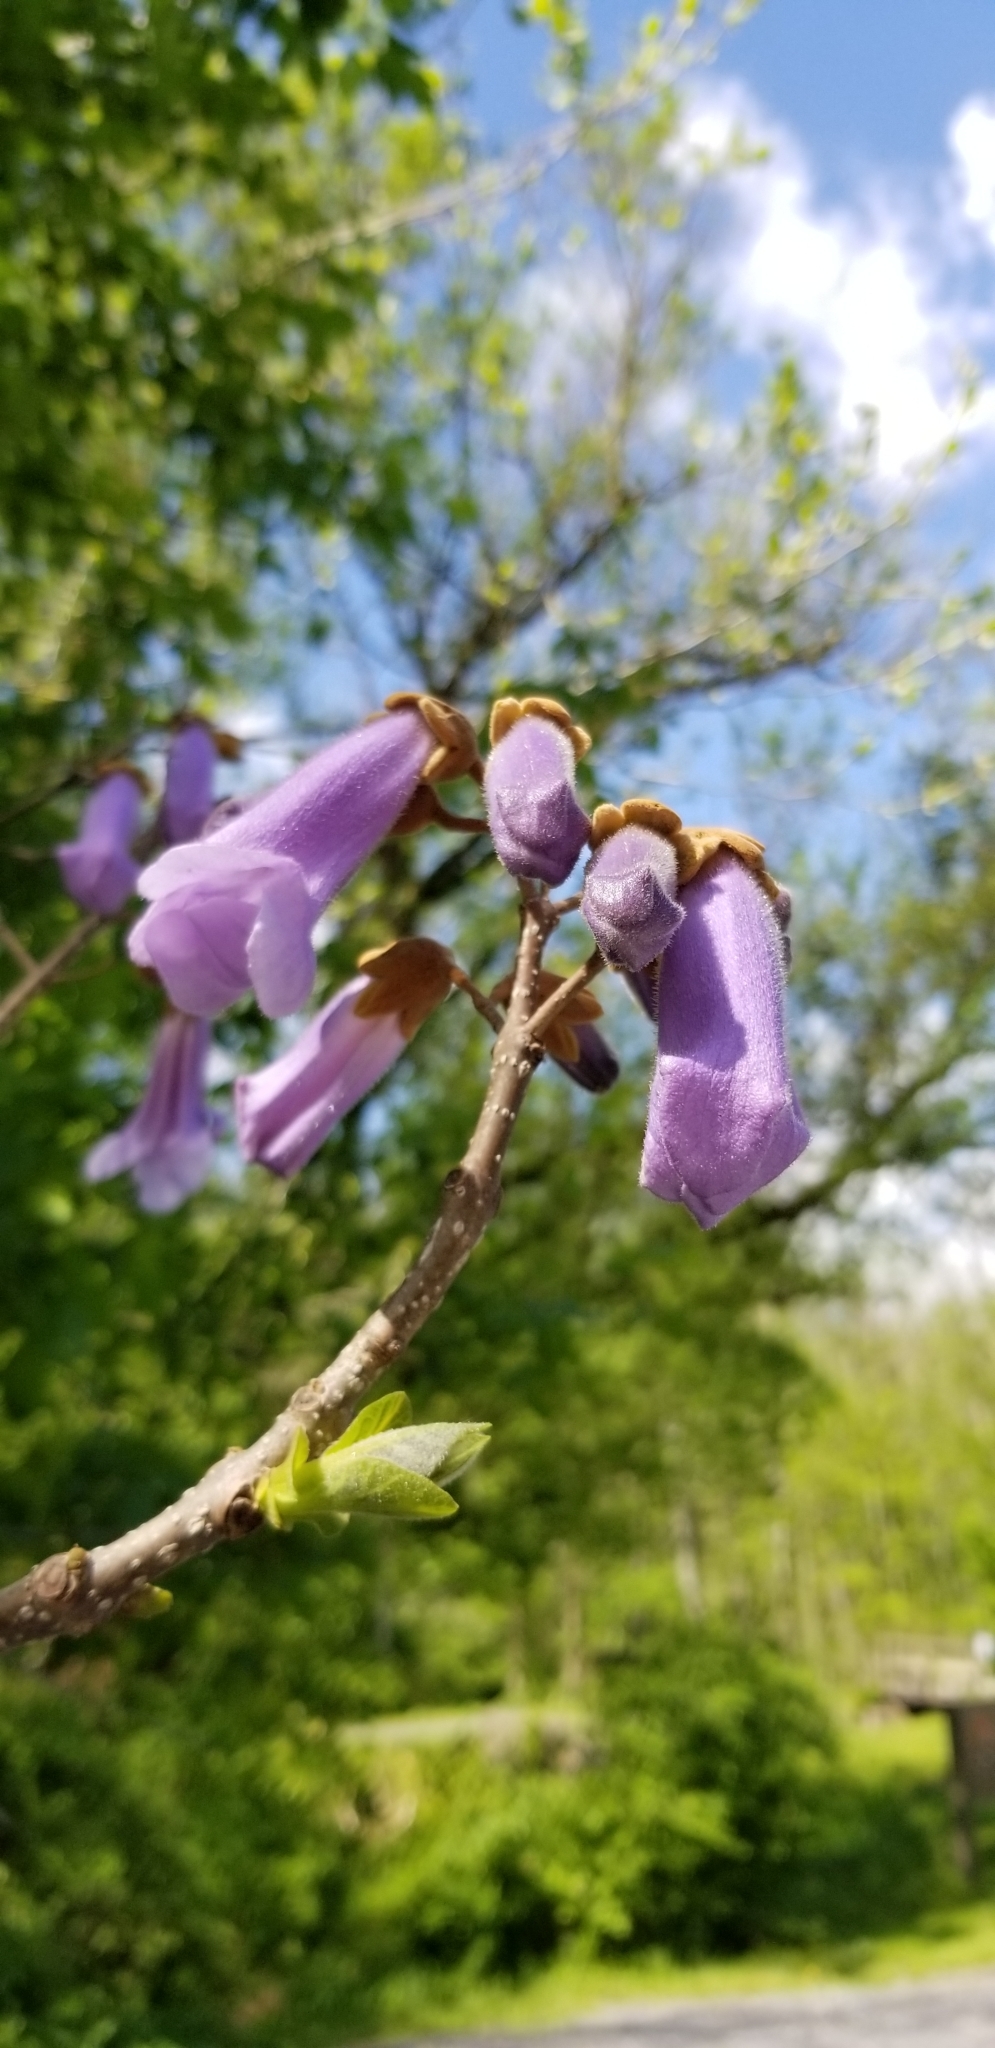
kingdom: Plantae
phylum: Tracheophyta
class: Magnoliopsida
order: Lamiales
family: Paulowniaceae
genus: Paulownia
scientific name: Paulownia tomentosa
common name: Foxglove-tree
